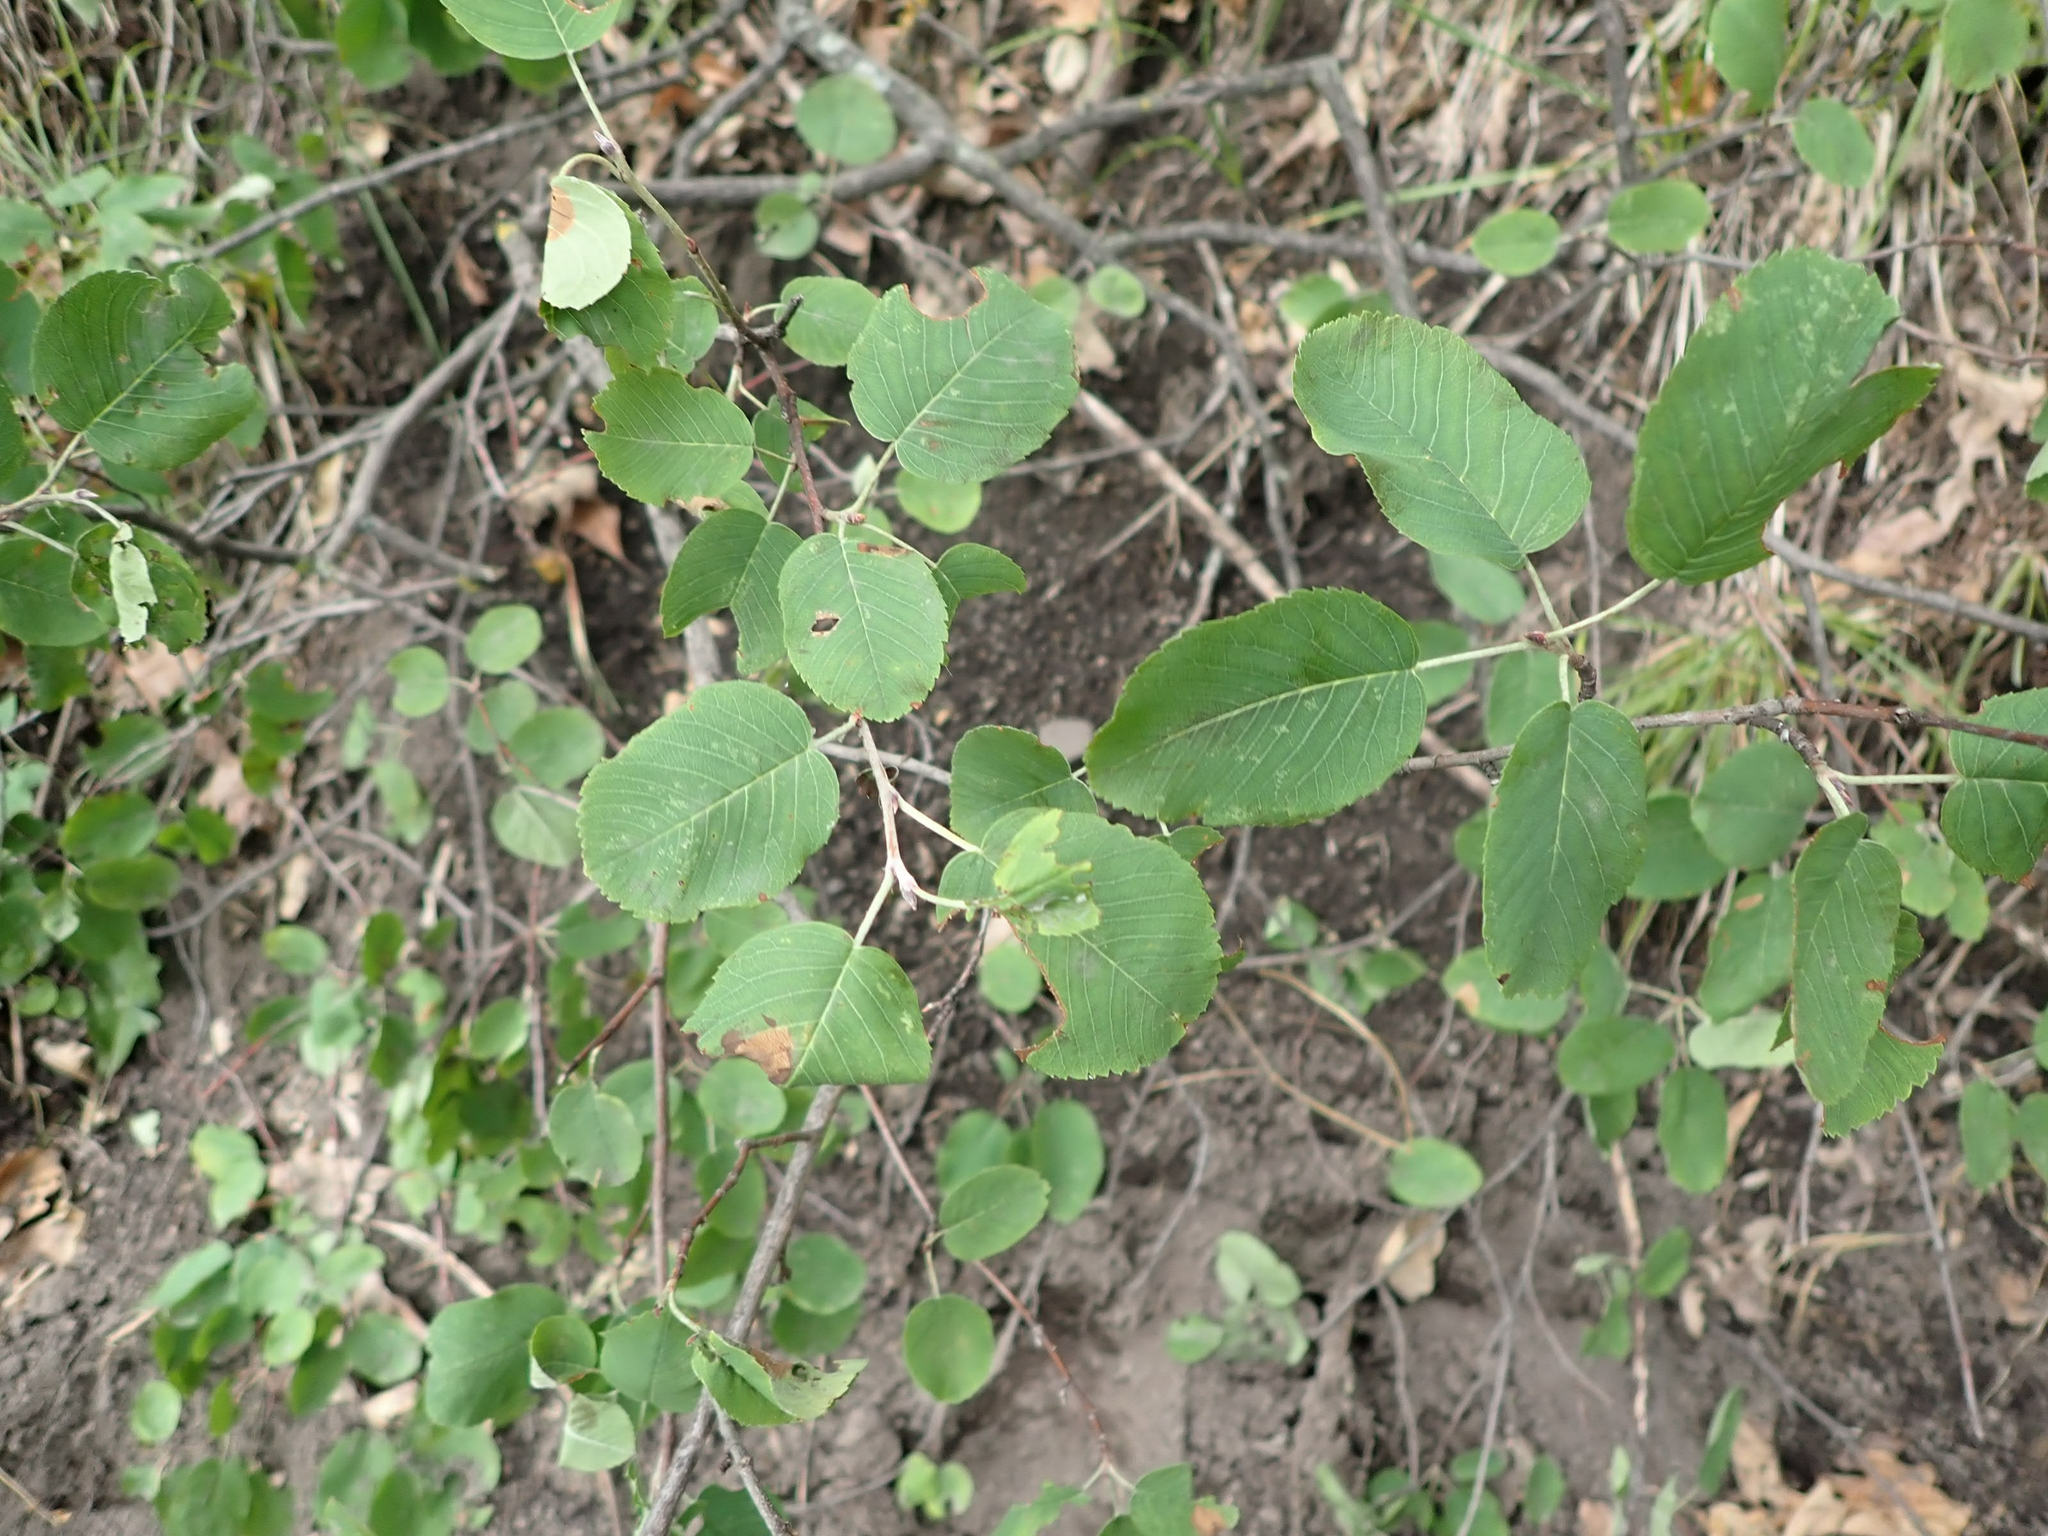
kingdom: Plantae
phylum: Tracheophyta
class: Magnoliopsida
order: Rosales
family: Rosaceae
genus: Amelanchier
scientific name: Amelanchier alnifolia
